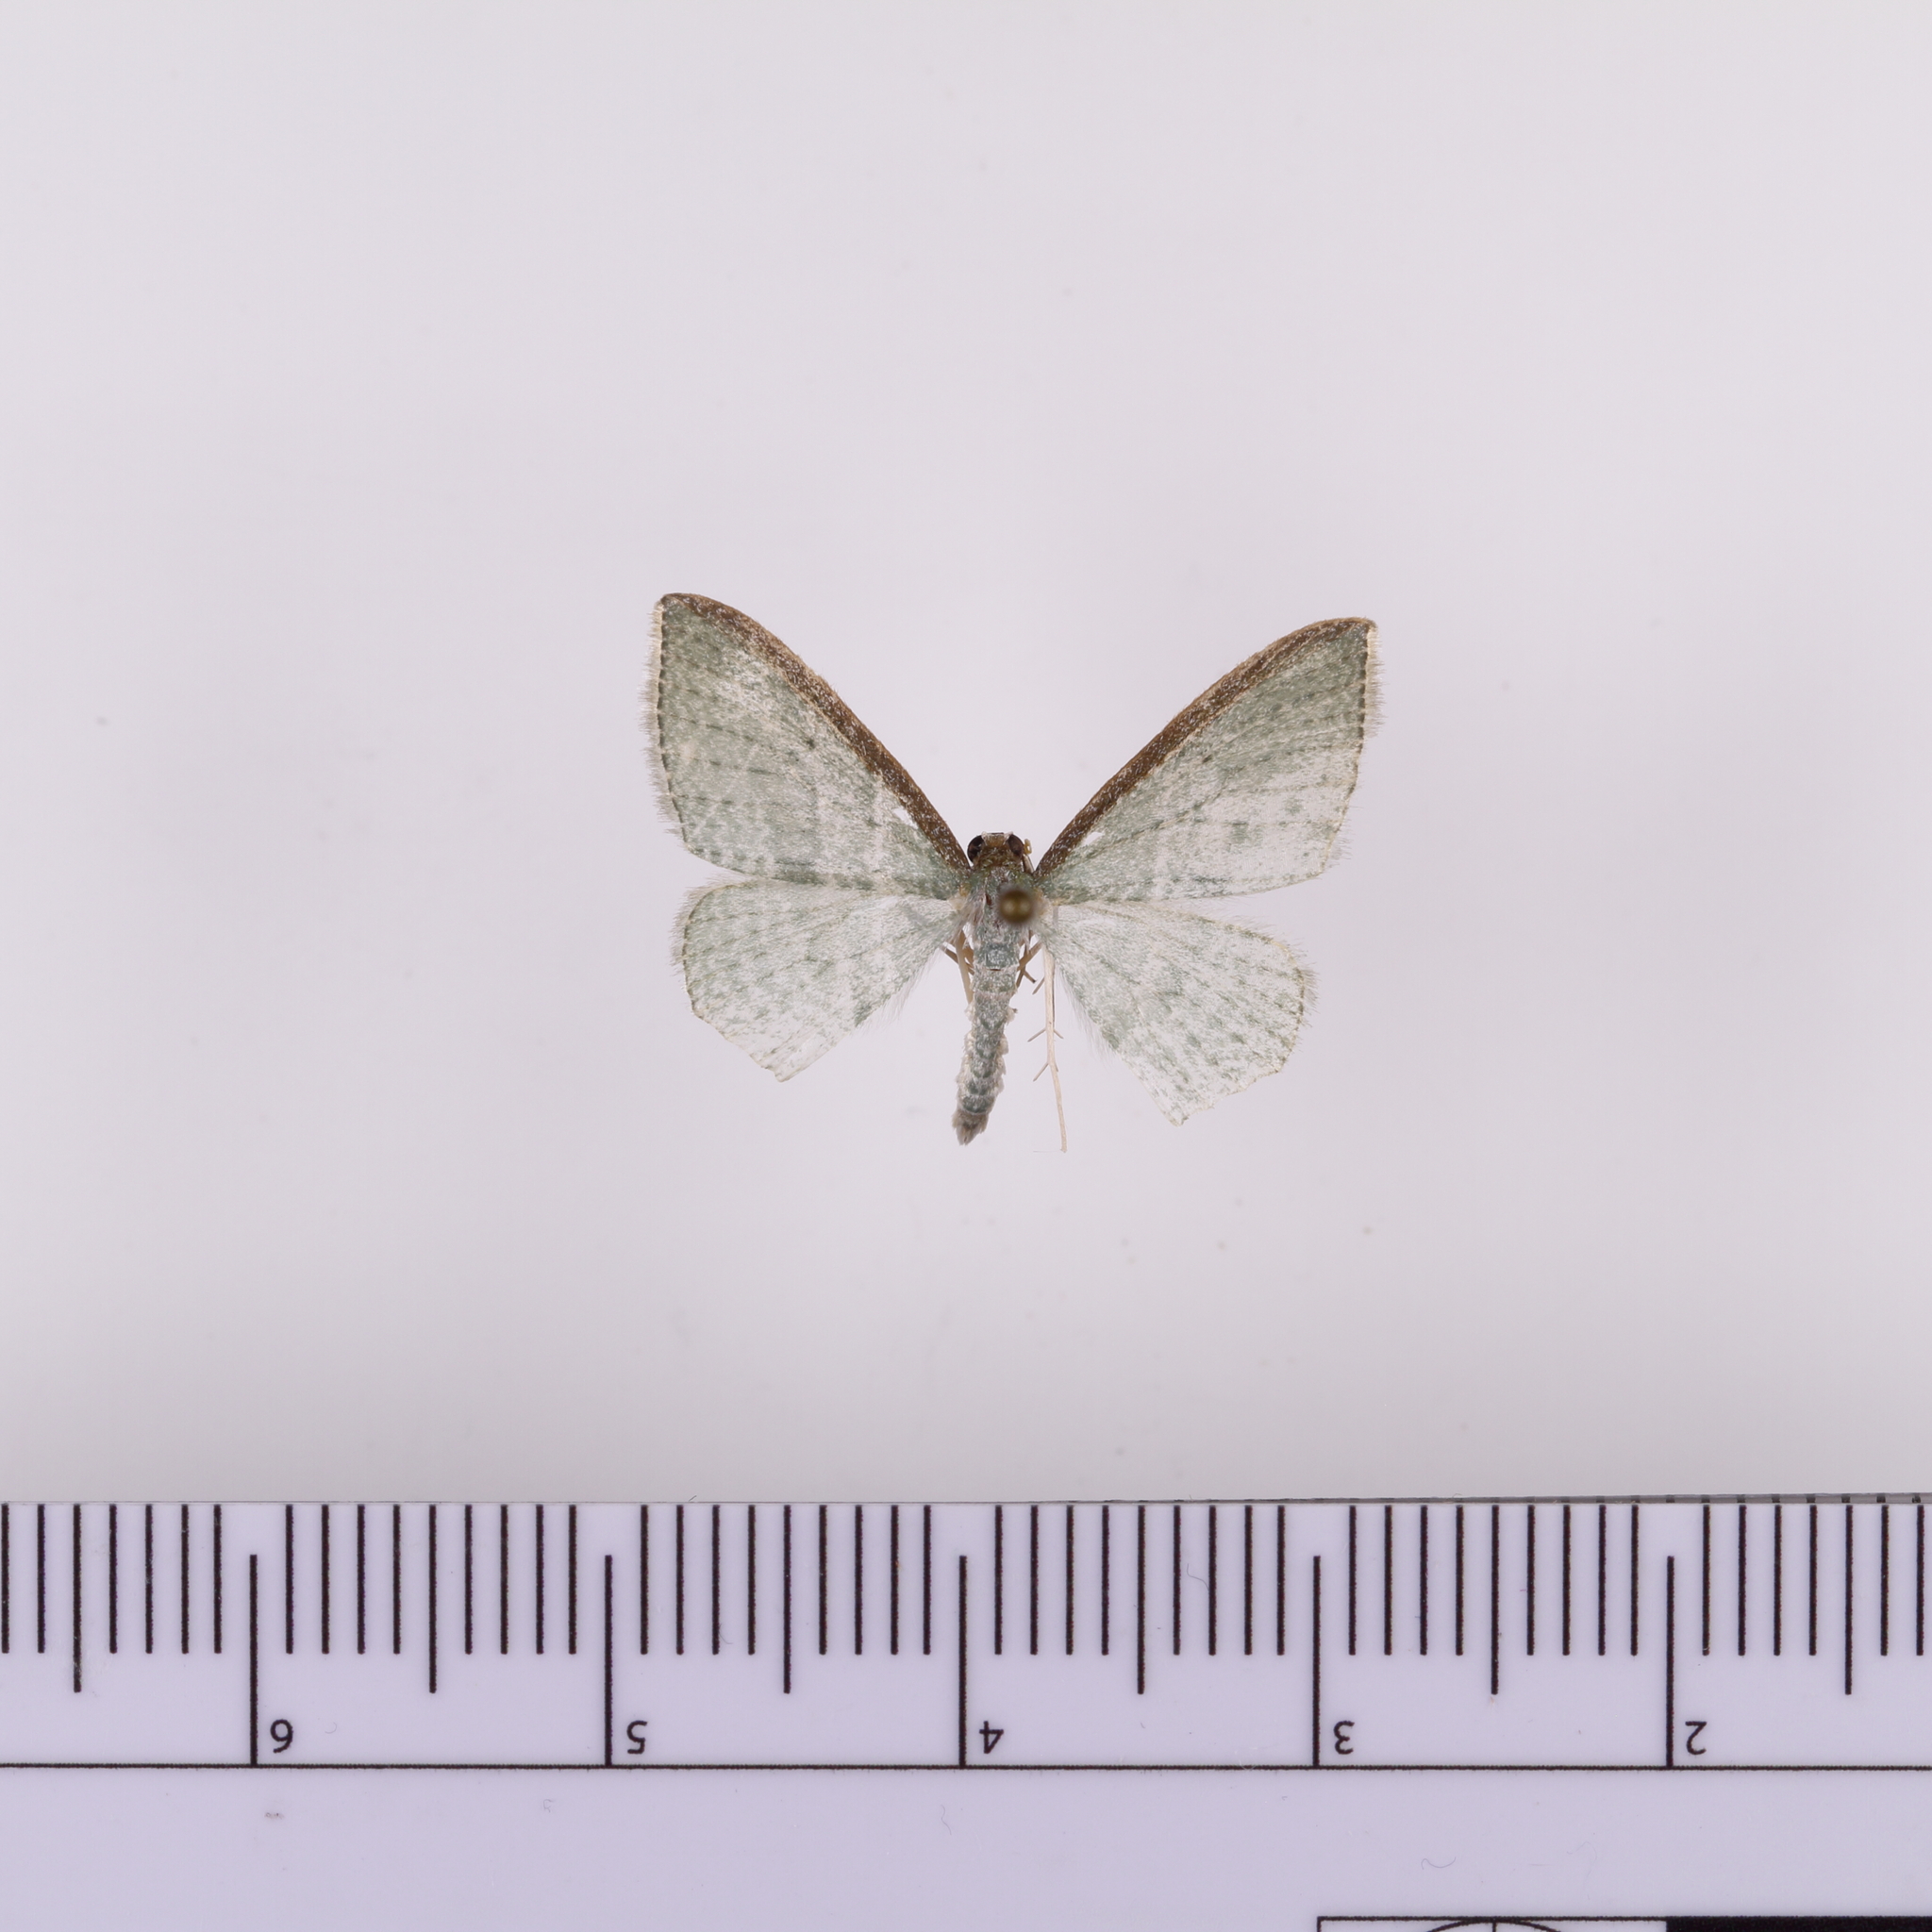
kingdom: Animalia
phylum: Arthropoda
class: Insecta
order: Lepidoptera
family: Geometridae
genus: Poecilasthena
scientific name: Poecilasthena pulchraria
